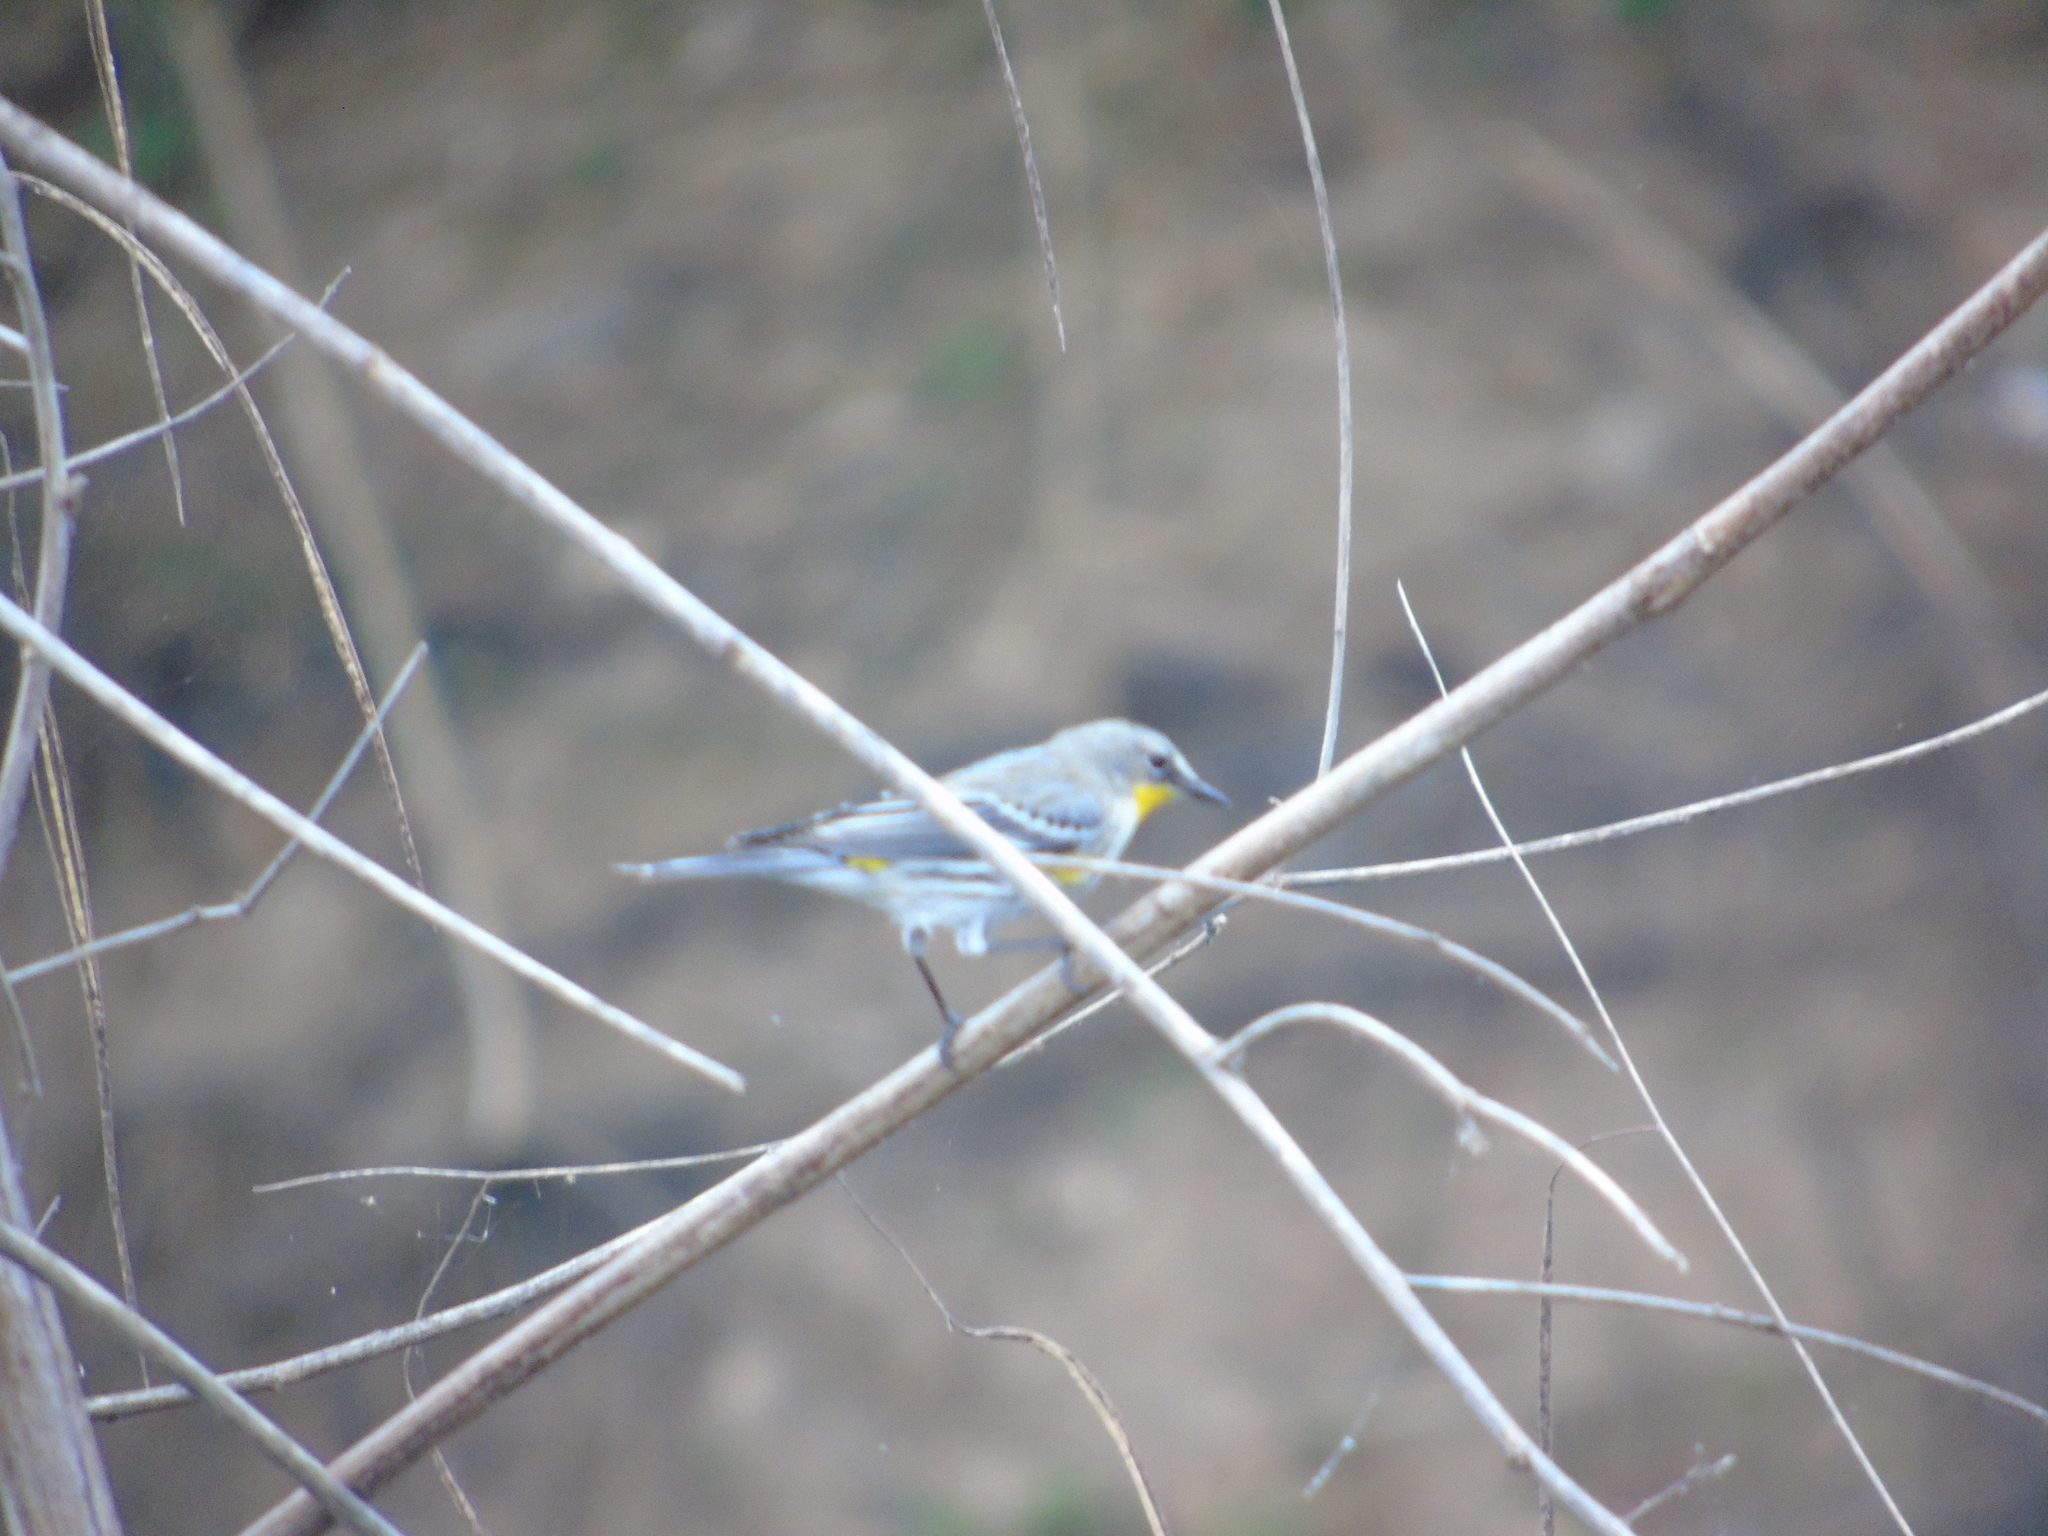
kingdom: Animalia
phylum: Chordata
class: Aves
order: Passeriformes
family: Parulidae
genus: Setophaga
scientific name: Setophaga coronata
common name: Myrtle warbler
